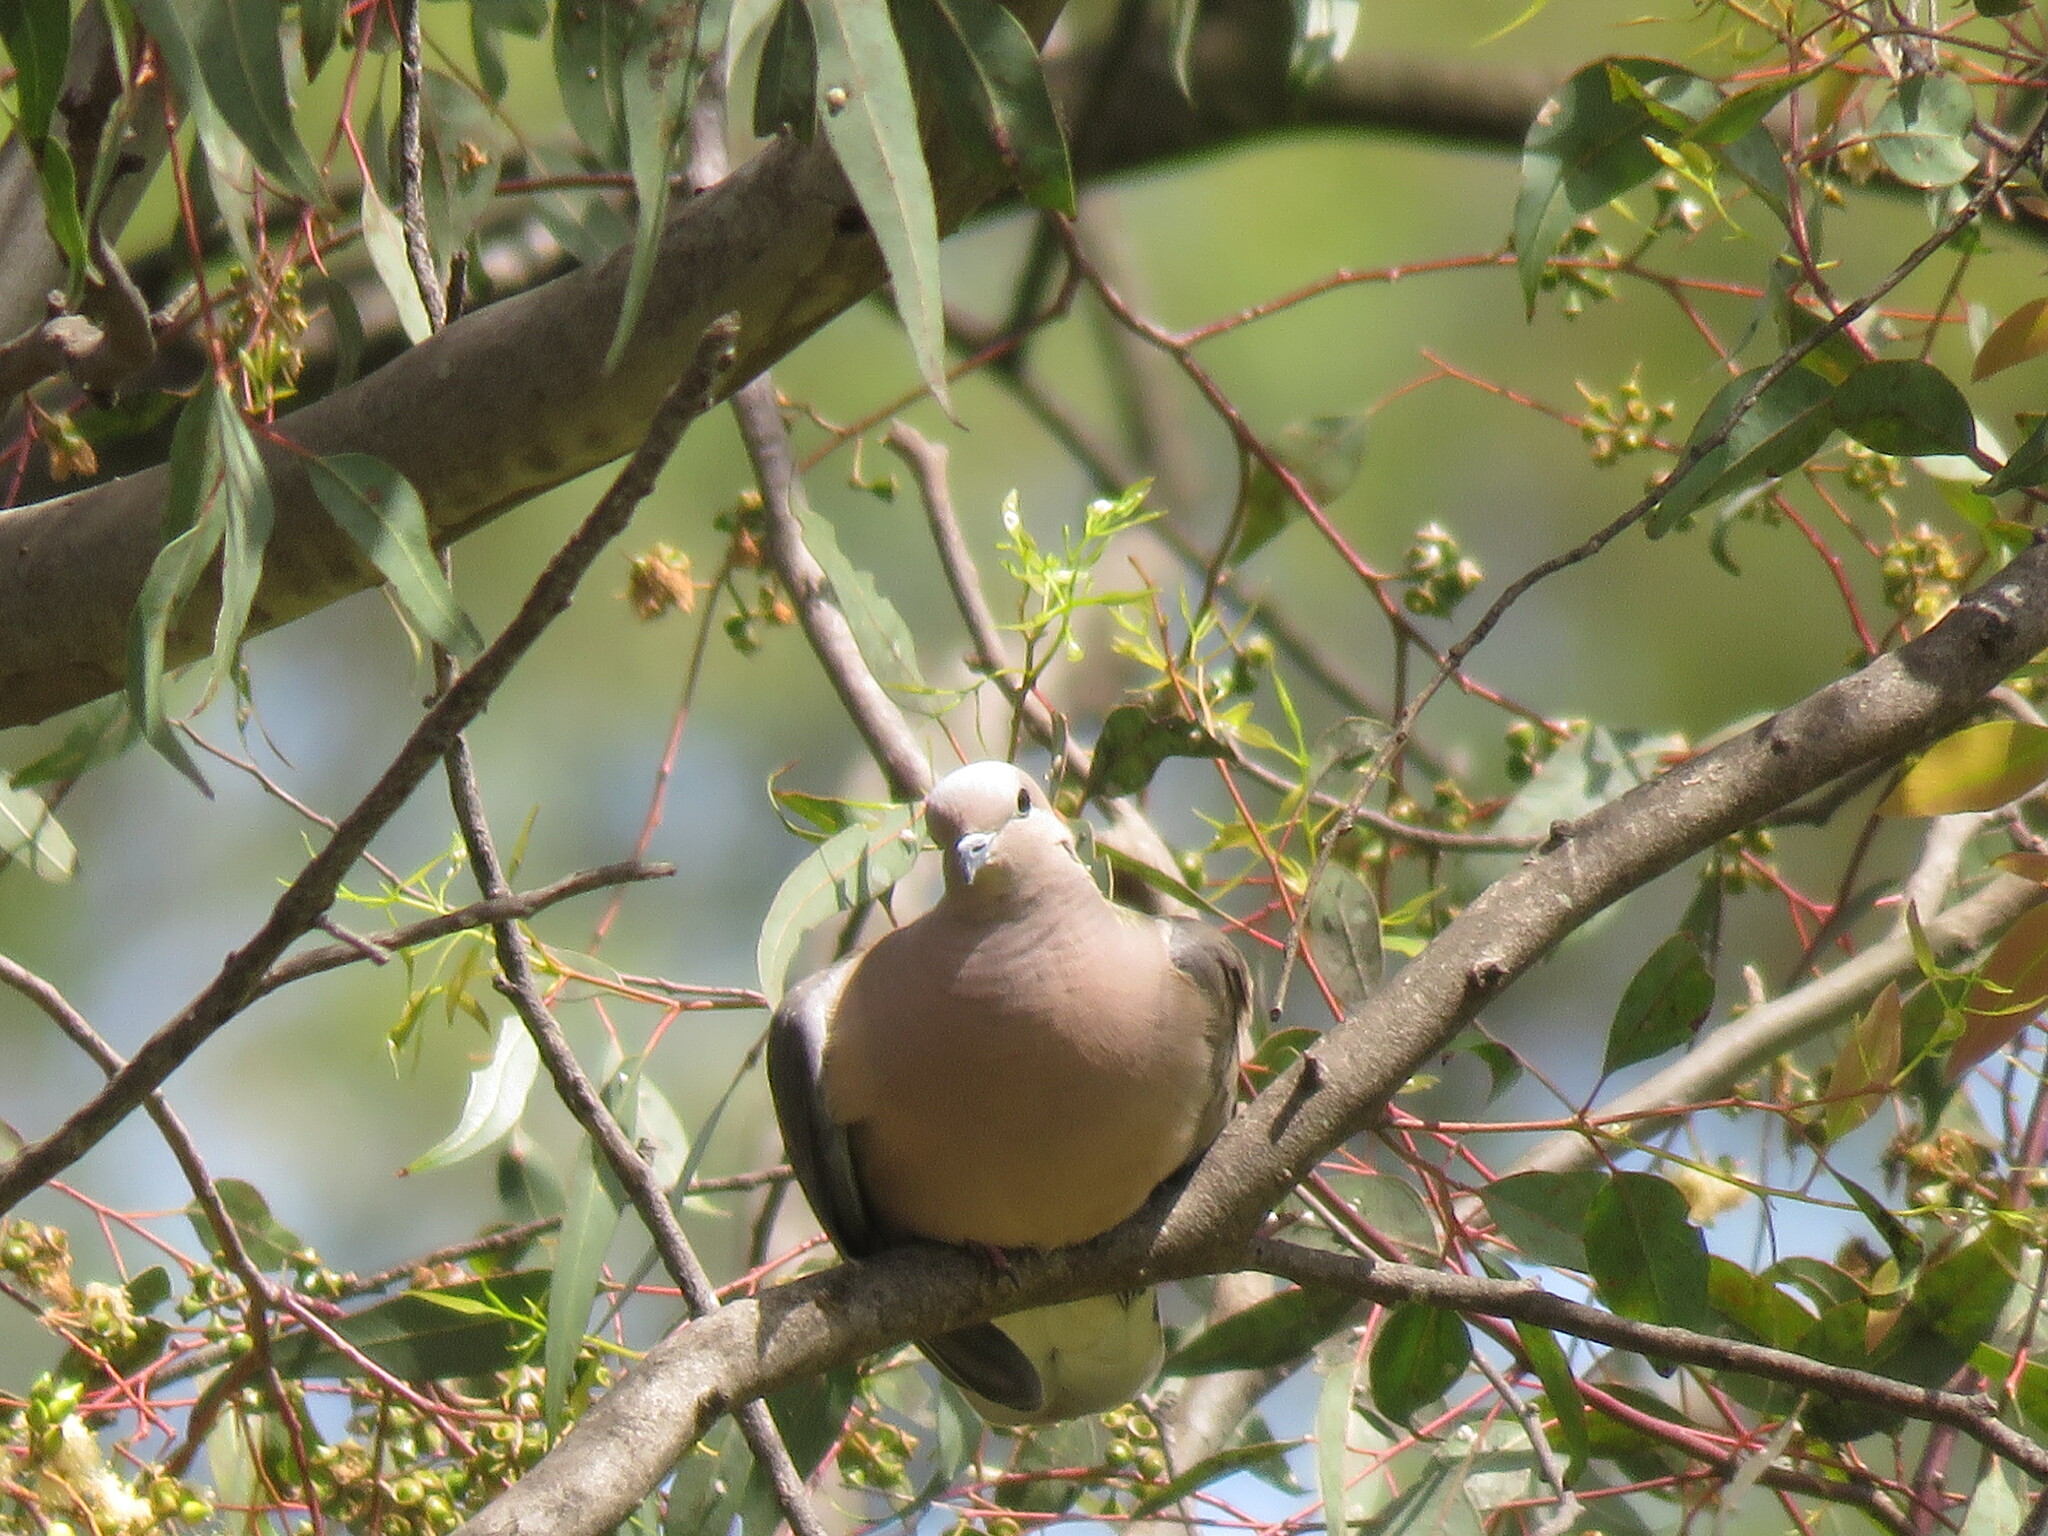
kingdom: Animalia
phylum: Chordata
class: Aves
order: Columbiformes
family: Columbidae
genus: Zenaida
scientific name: Zenaida auriculata
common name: Eared dove
